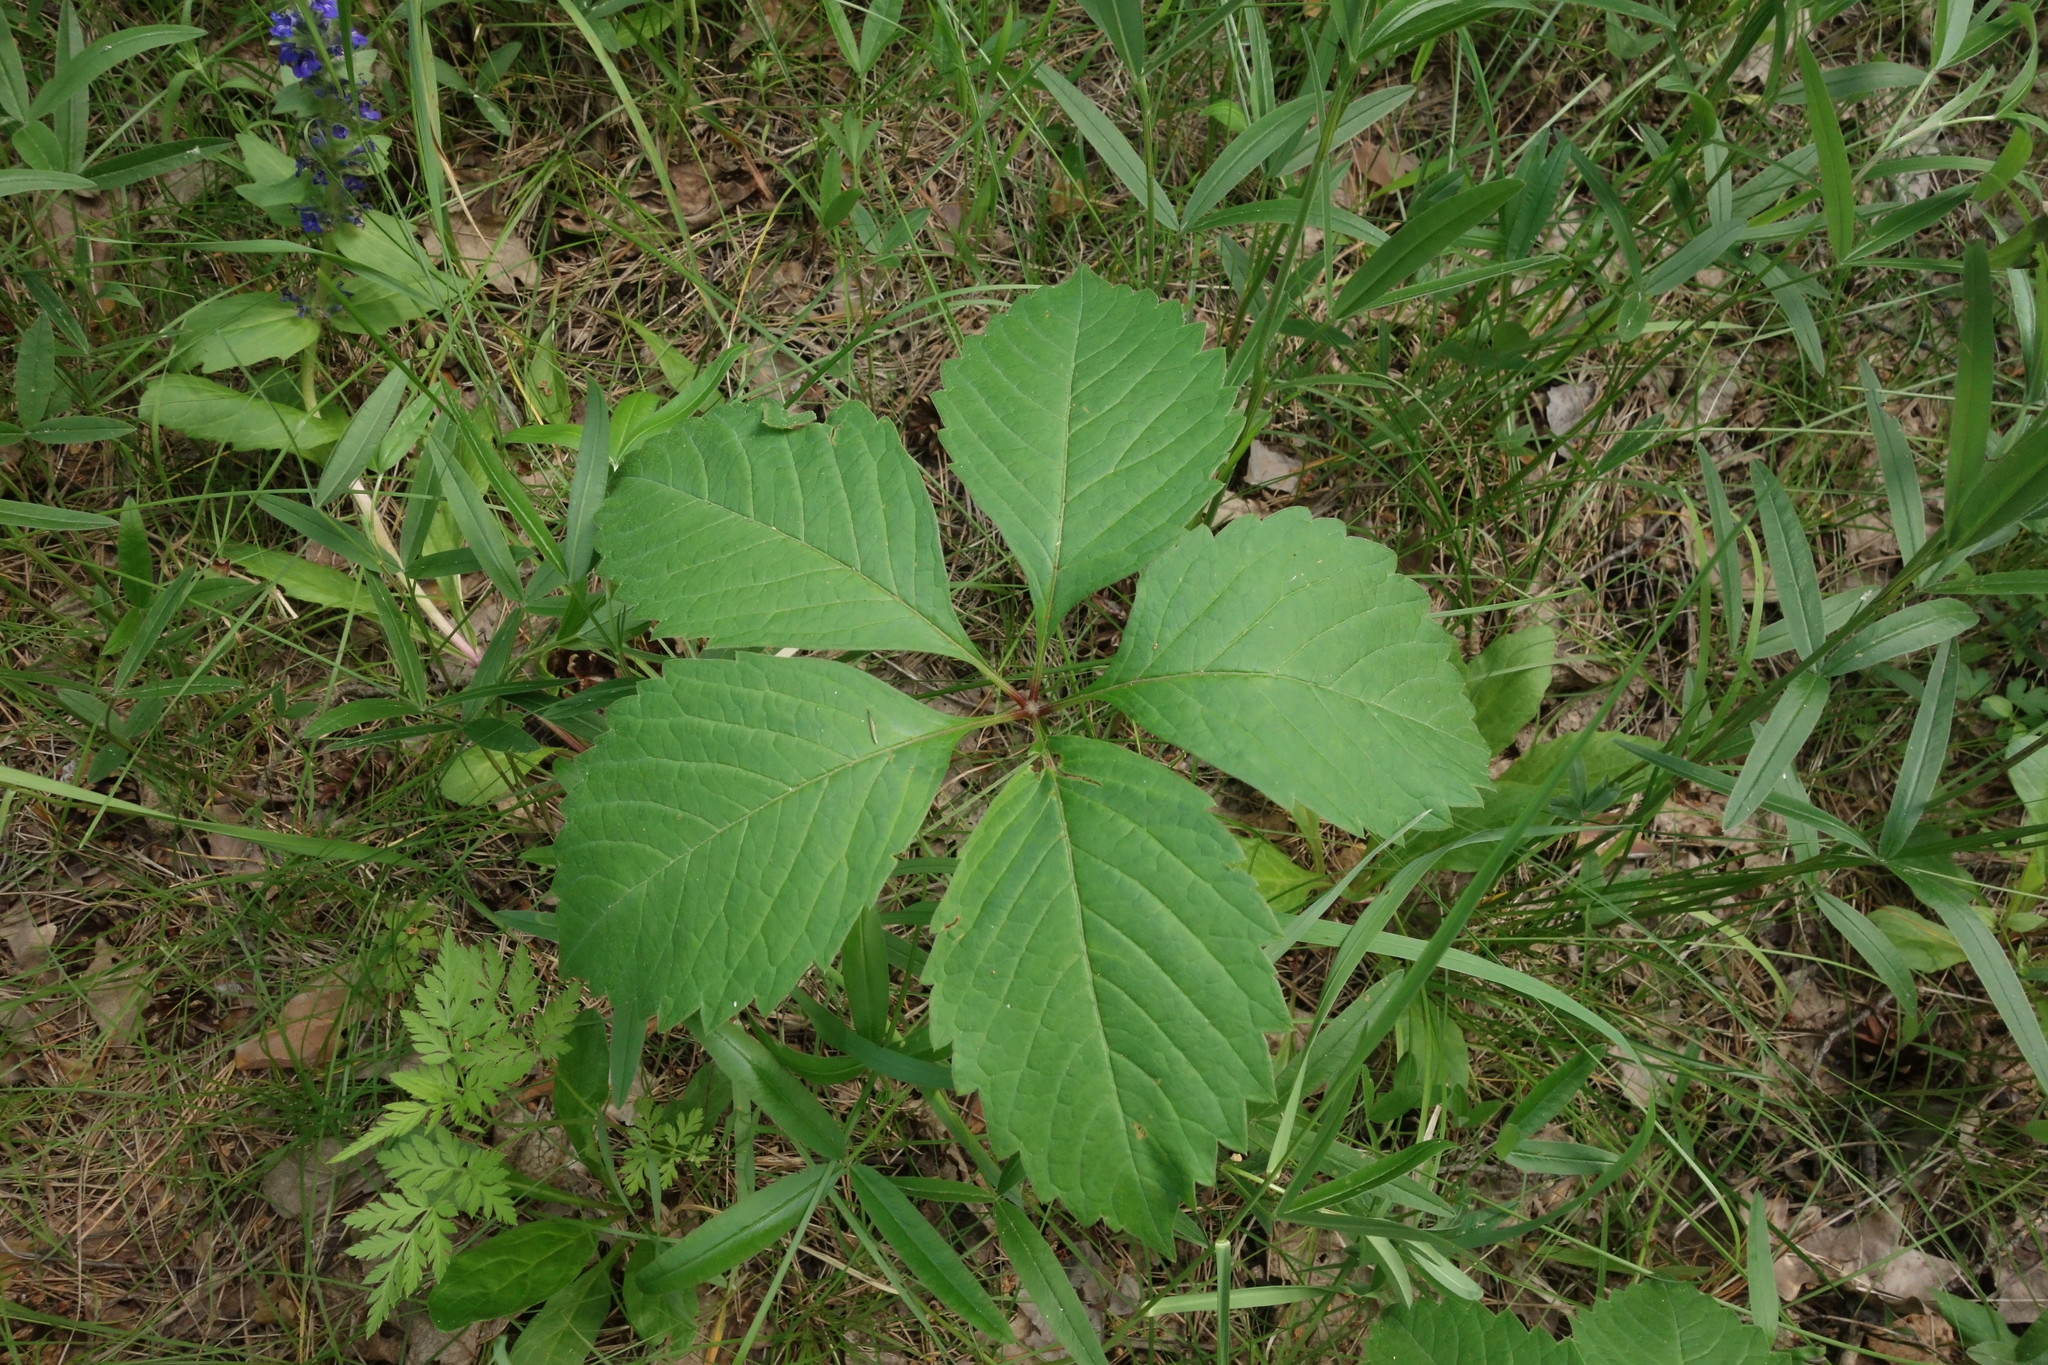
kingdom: Plantae
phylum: Tracheophyta
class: Magnoliopsida
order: Vitales
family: Vitaceae
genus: Parthenocissus
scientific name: Parthenocissus inserta
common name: False virginia-creeper
